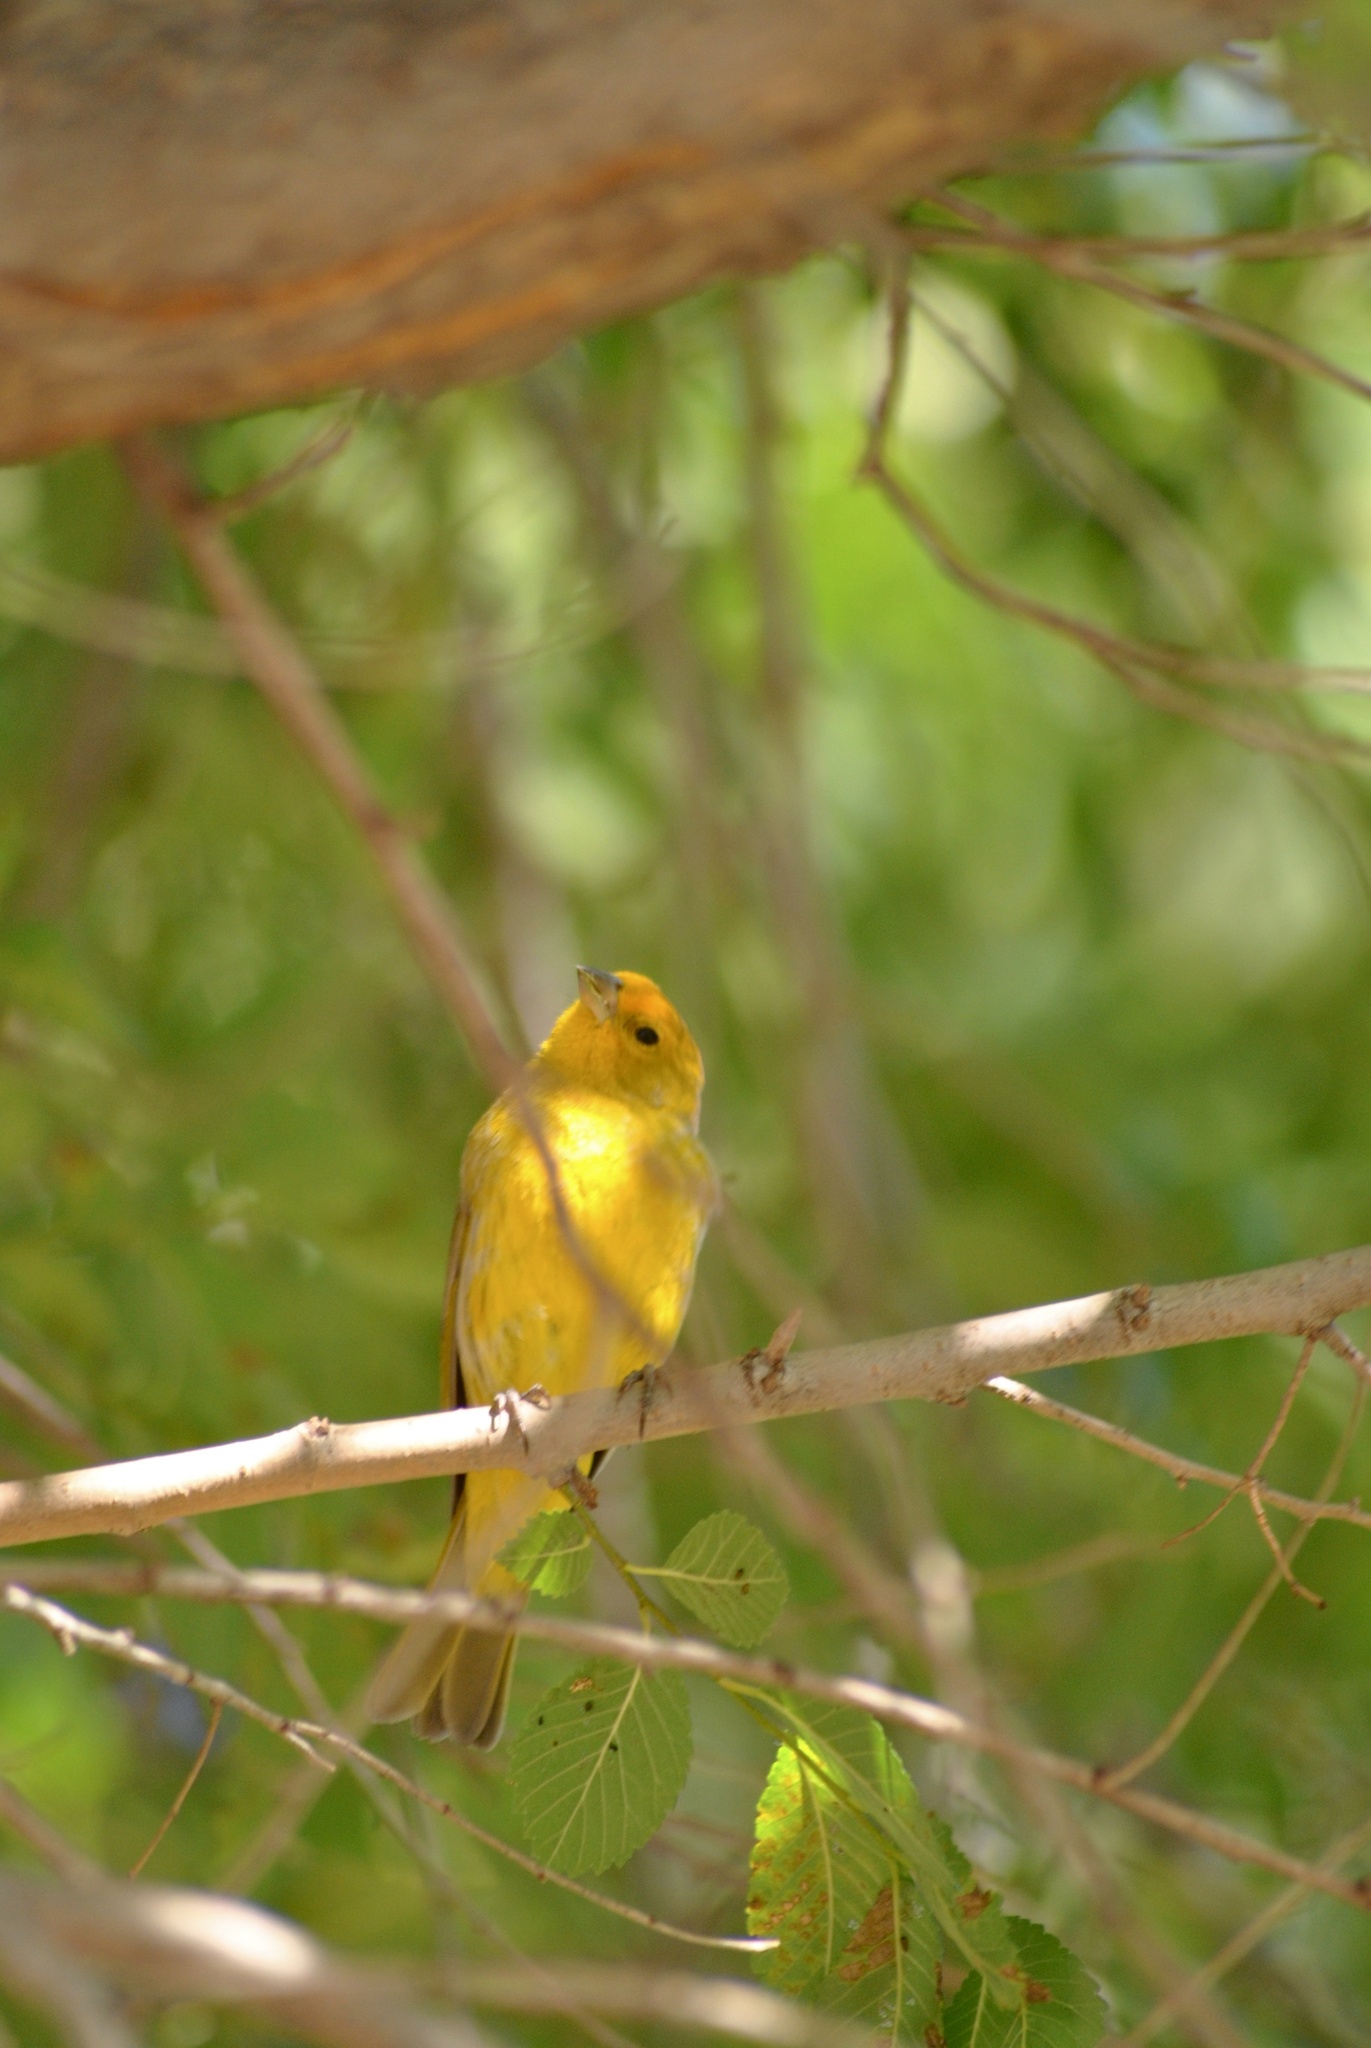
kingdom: Animalia
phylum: Chordata
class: Aves
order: Passeriformes
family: Thraupidae
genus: Sicalis
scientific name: Sicalis flaveola
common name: Saffron finch
